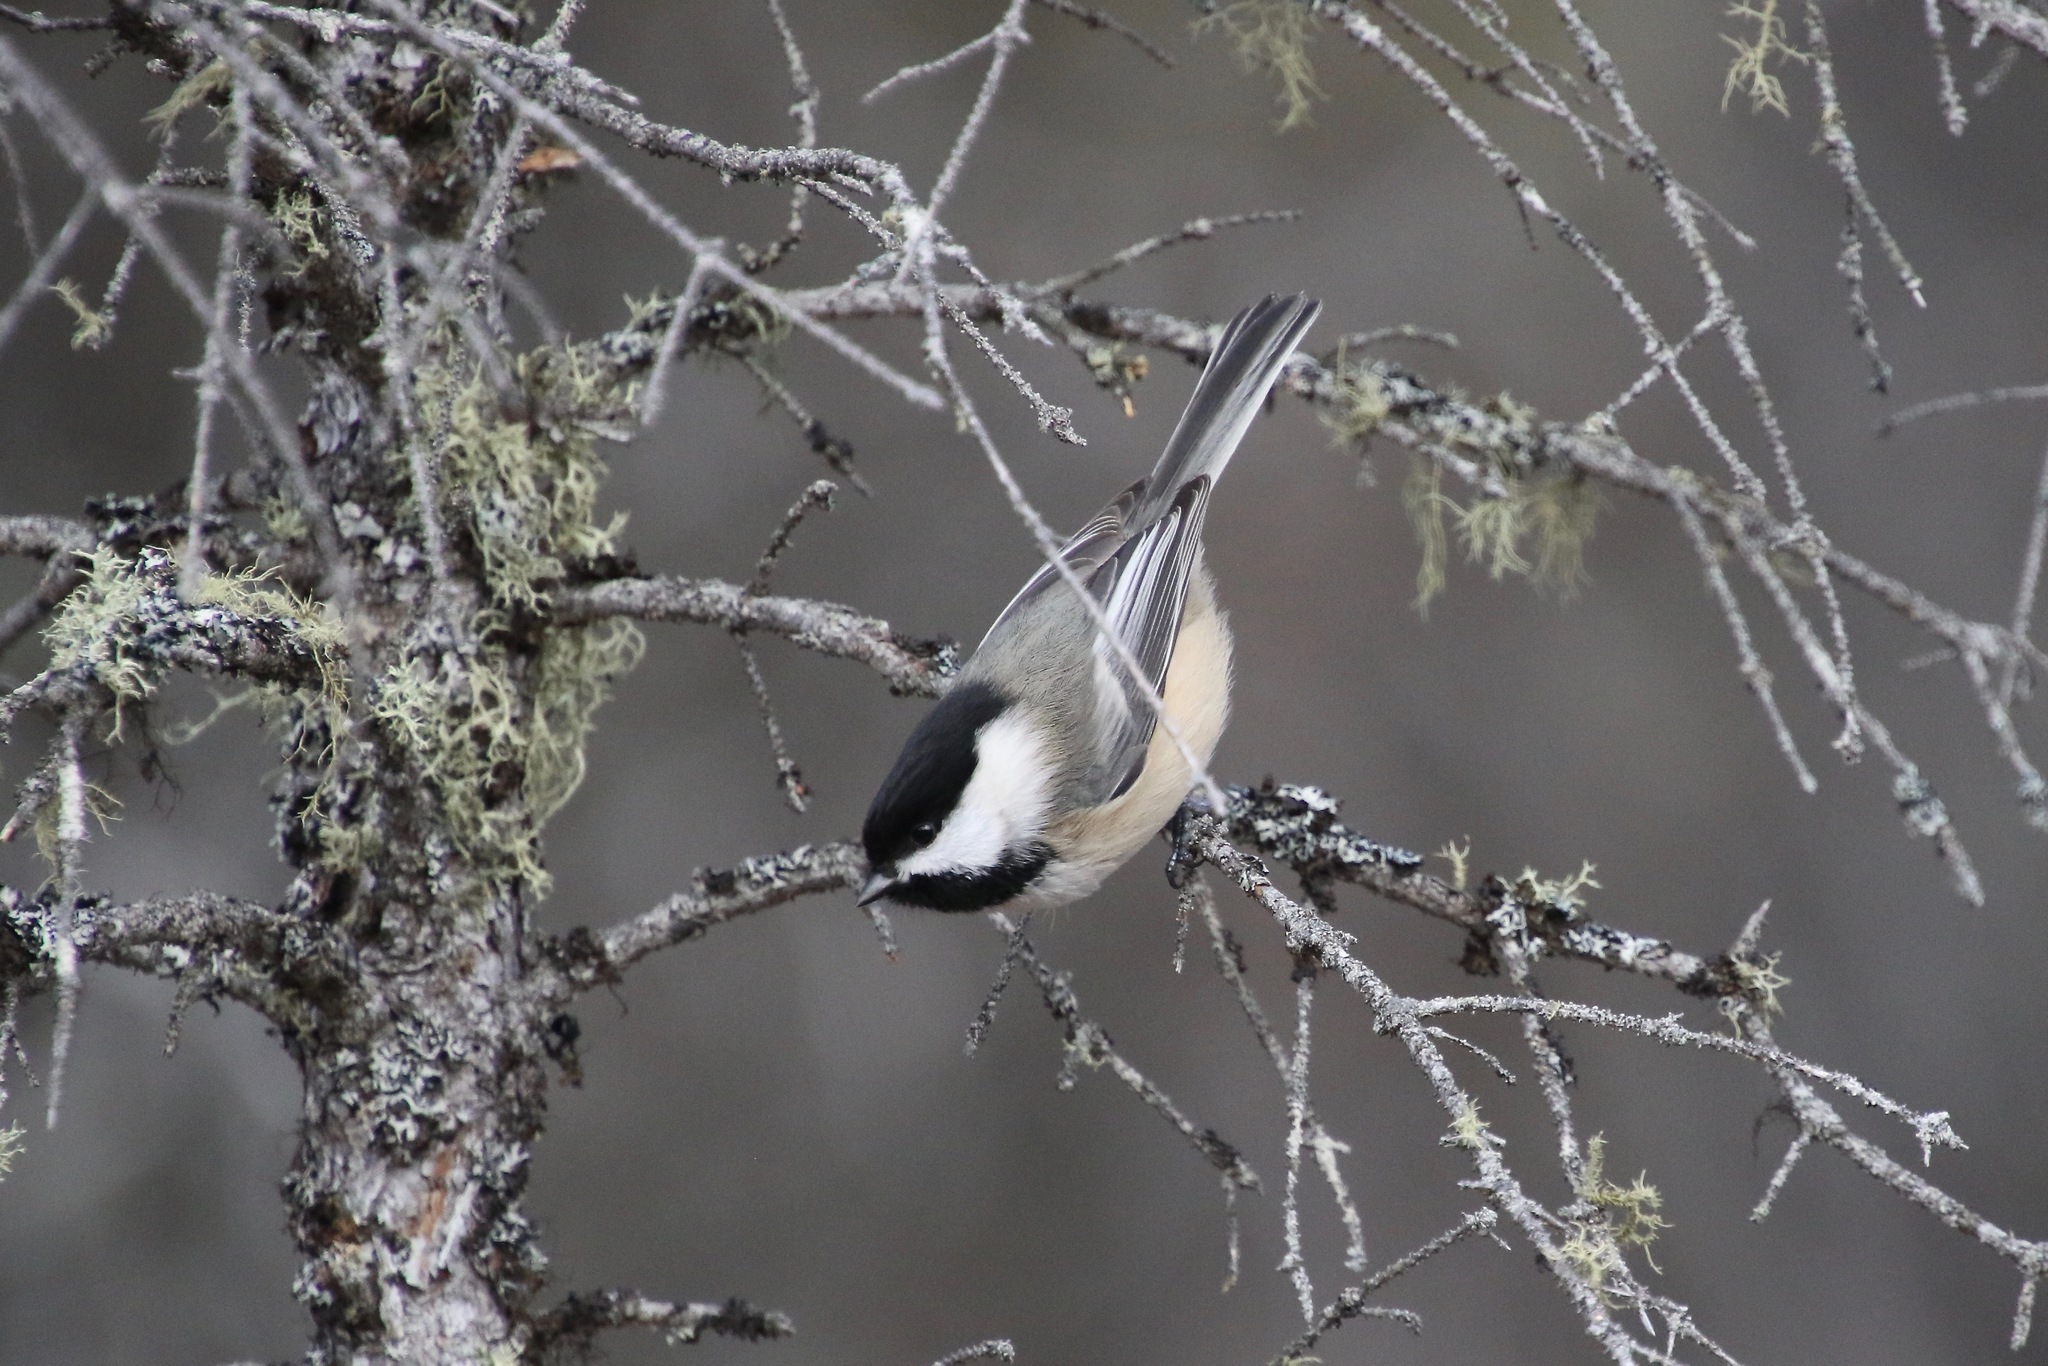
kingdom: Animalia
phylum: Chordata
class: Aves
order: Passeriformes
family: Paridae
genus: Poecile
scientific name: Poecile atricapillus
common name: Black-capped chickadee
